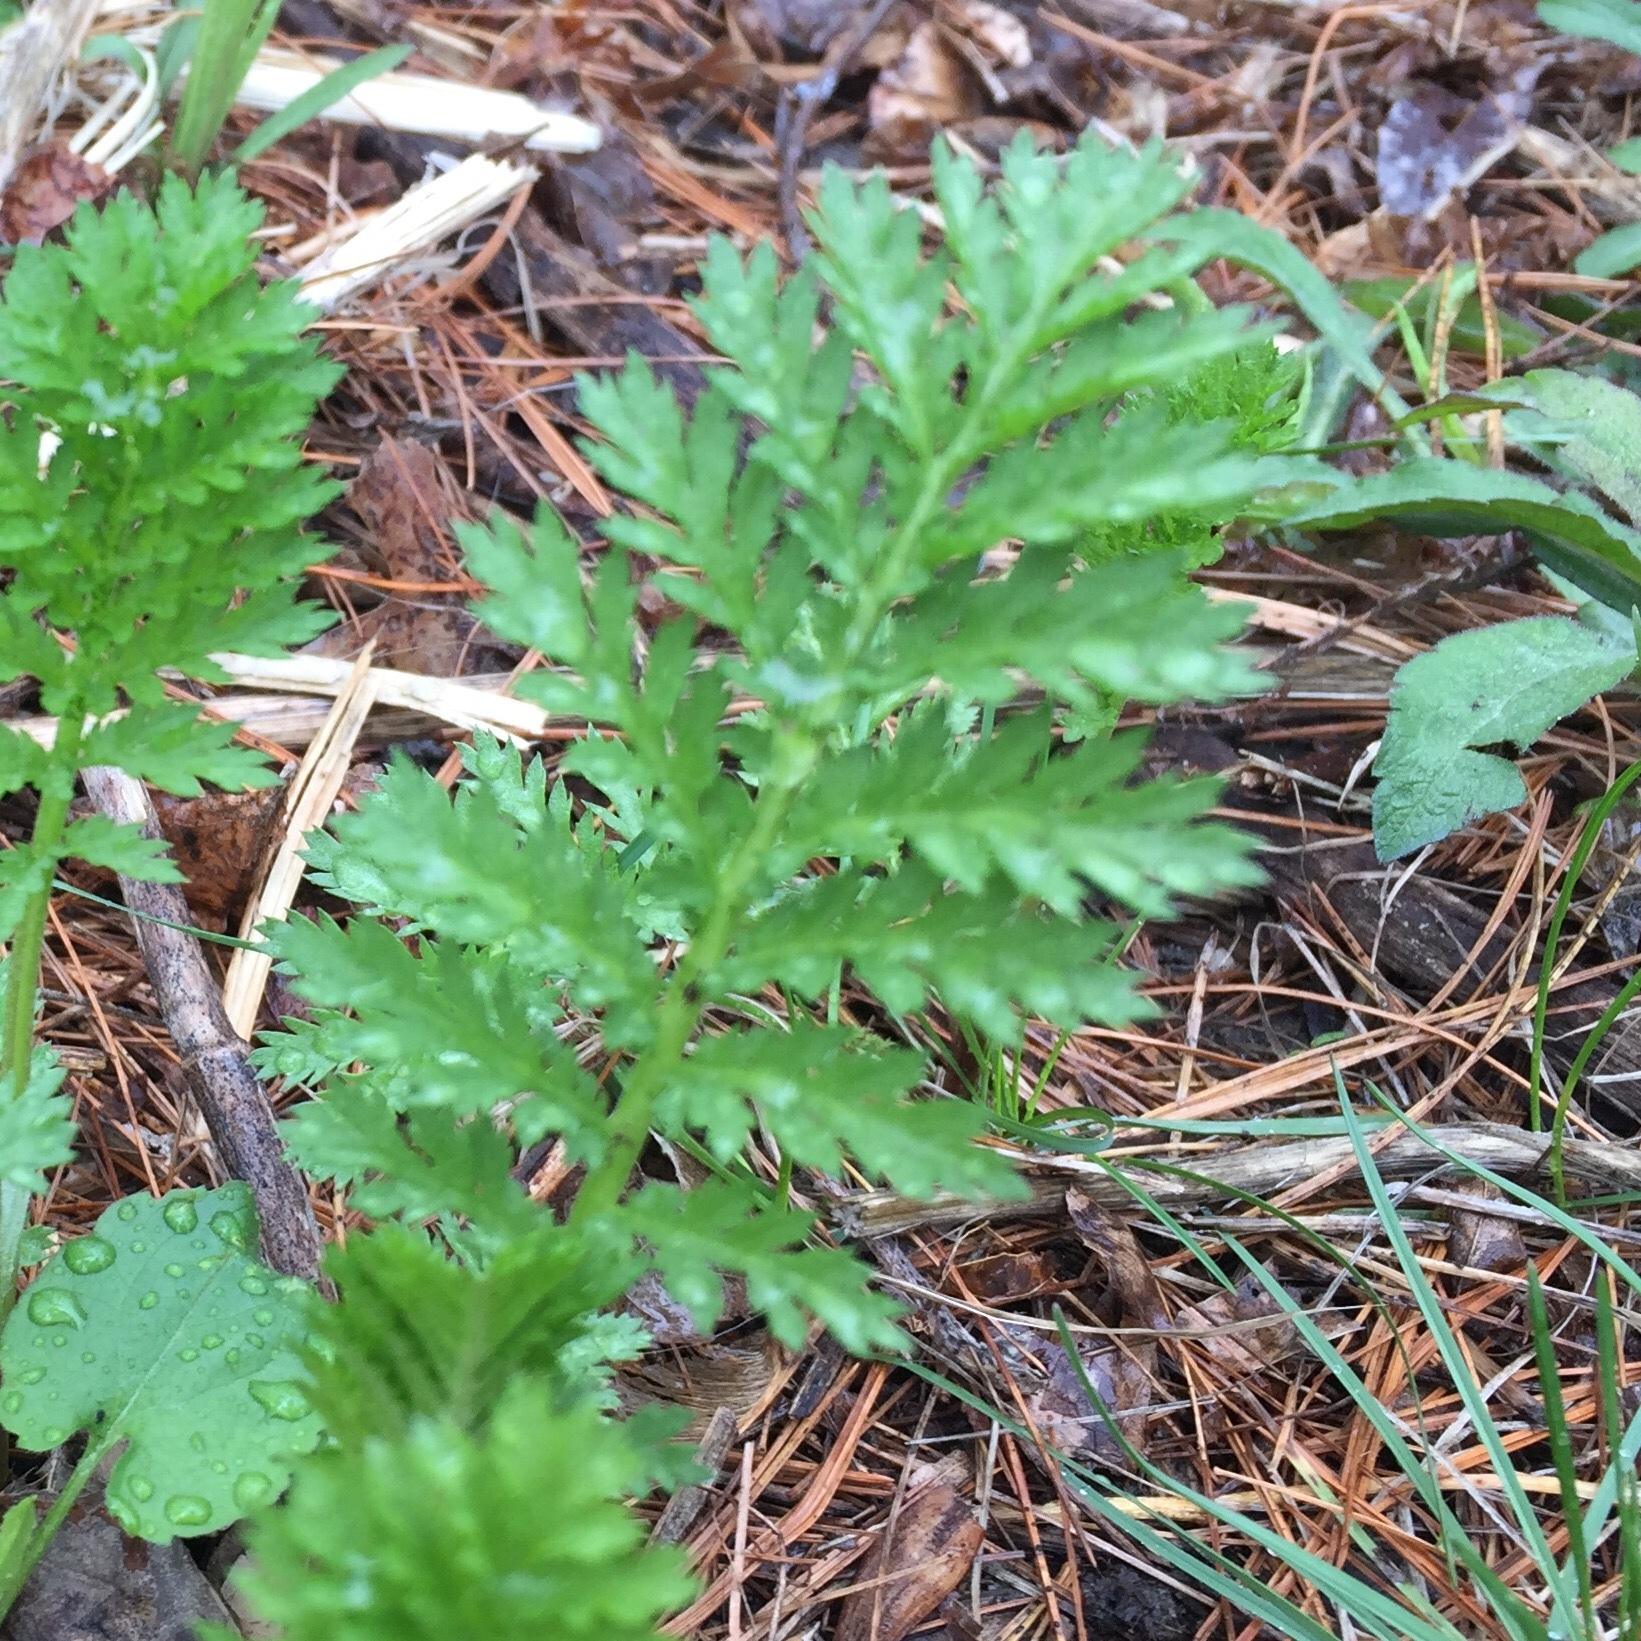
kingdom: Plantae
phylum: Tracheophyta
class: Magnoliopsida
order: Asterales
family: Asteraceae
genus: Tanacetum
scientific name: Tanacetum vulgare
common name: Common tansy
